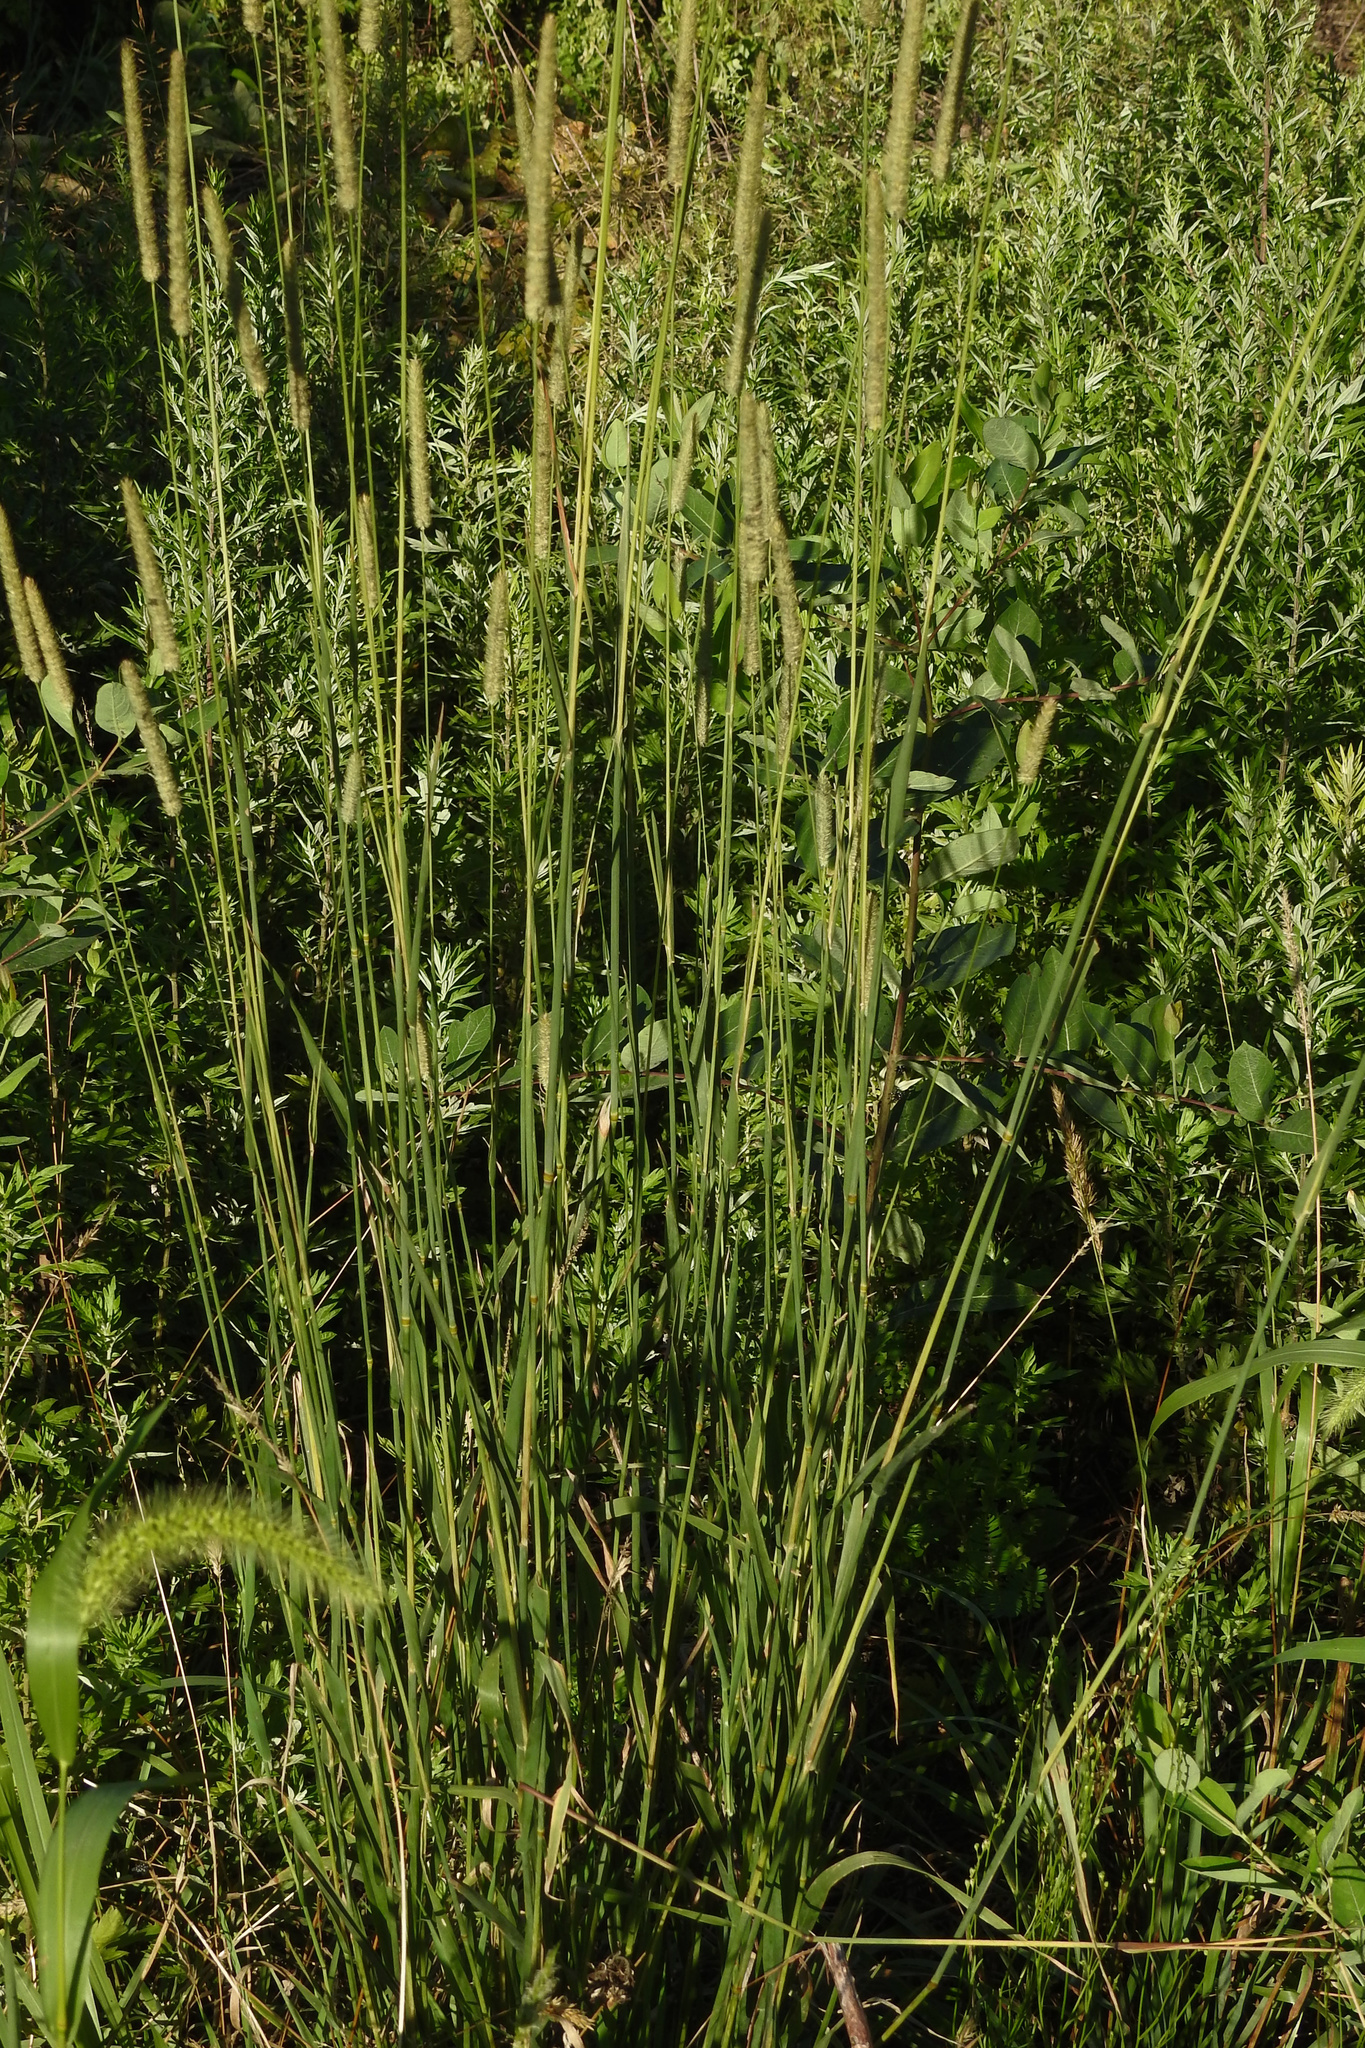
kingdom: Plantae
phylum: Tracheophyta
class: Liliopsida
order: Poales
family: Poaceae
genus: Phleum
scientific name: Phleum pratense
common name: Timothy grass
